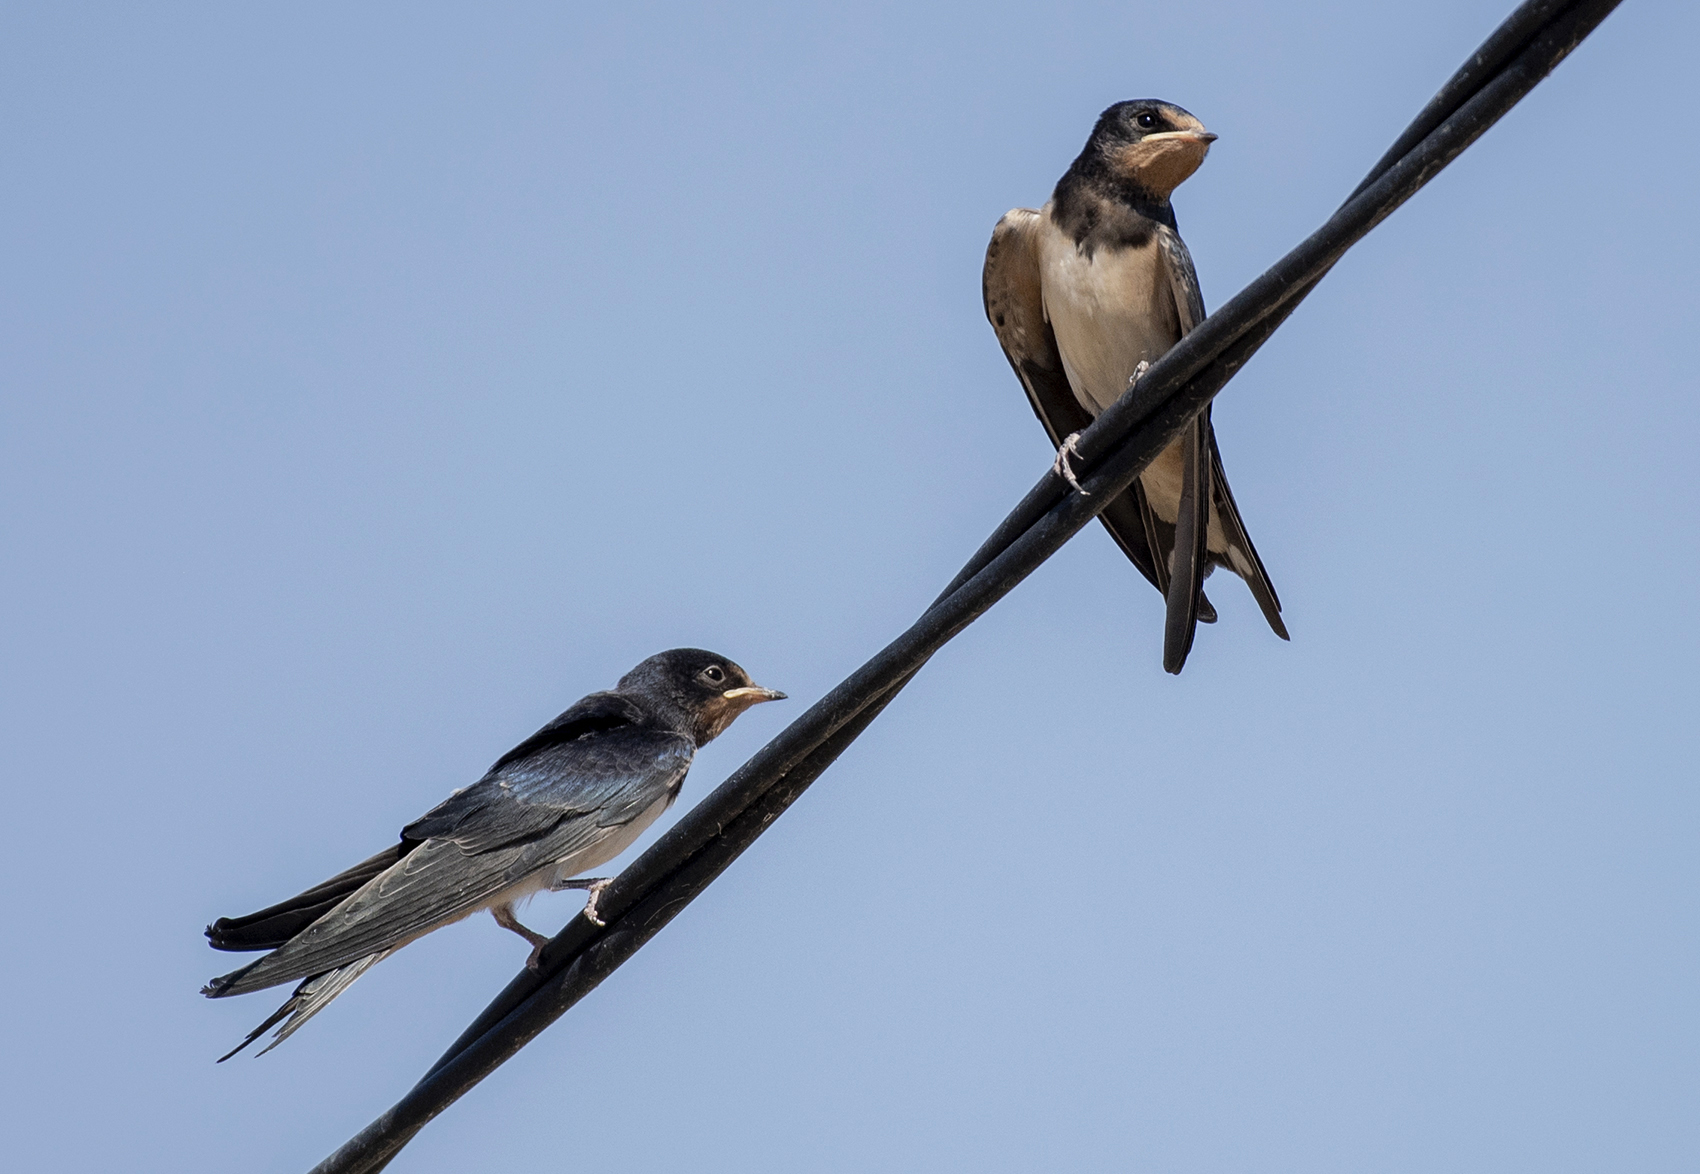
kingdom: Animalia
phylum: Chordata
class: Aves
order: Passeriformes
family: Hirundinidae
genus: Hirundo
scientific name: Hirundo rustica
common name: Barn swallow
